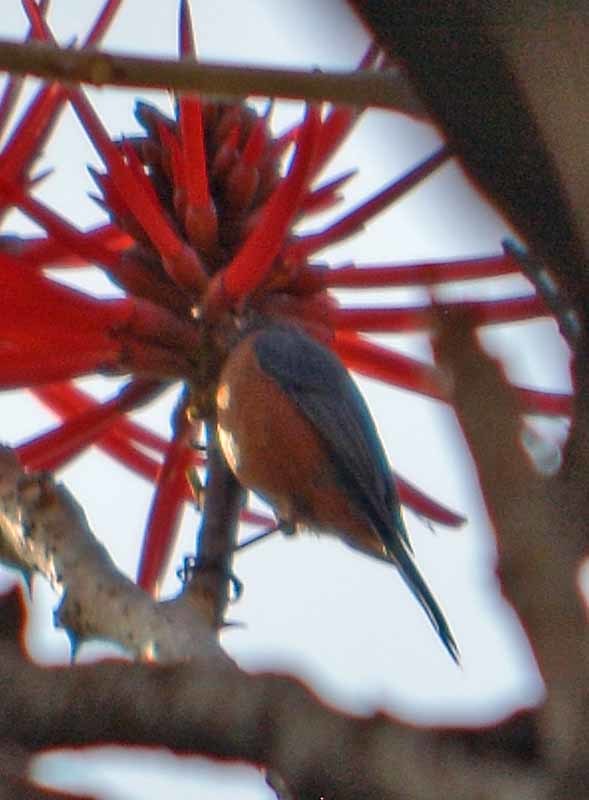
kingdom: Animalia
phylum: Chordata
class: Aves
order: Passeriformes
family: Thraupidae
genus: Diglossa
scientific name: Diglossa baritula
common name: Cinnamon-bellied flowerpiercer
